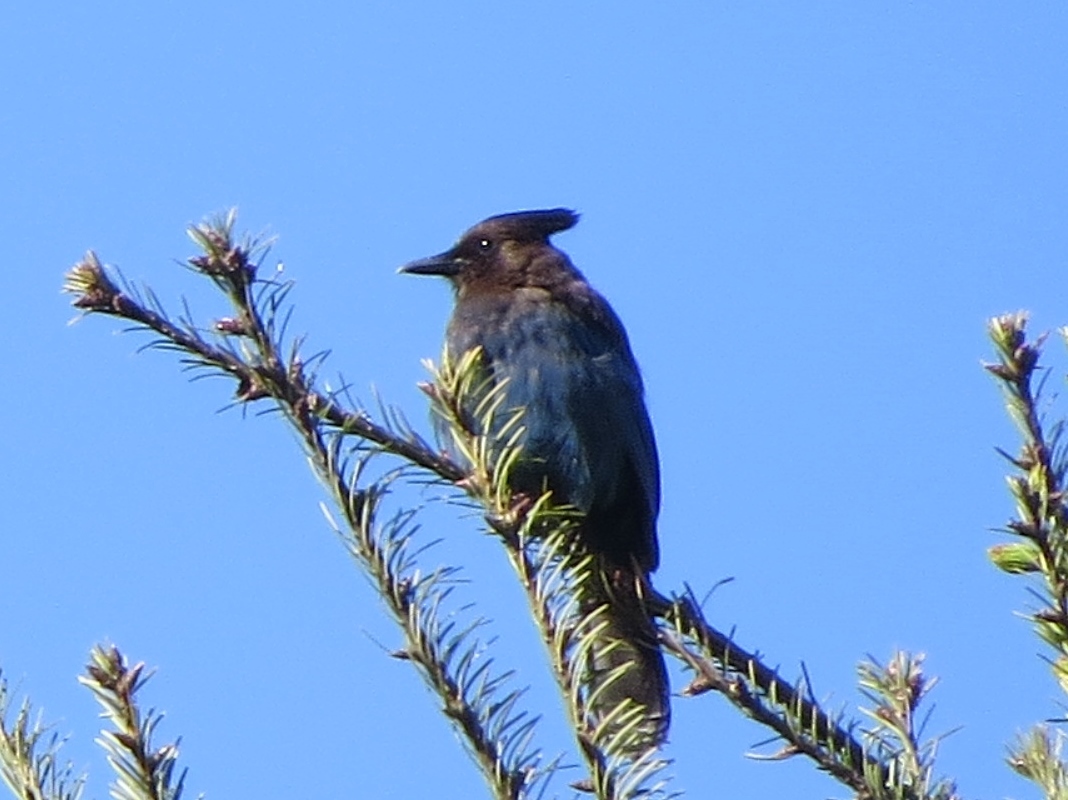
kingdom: Animalia
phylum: Chordata
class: Aves
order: Passeriformes
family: Corvidae
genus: Cyanocitta
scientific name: Cyanocitta stelleri
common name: Steller's jay
